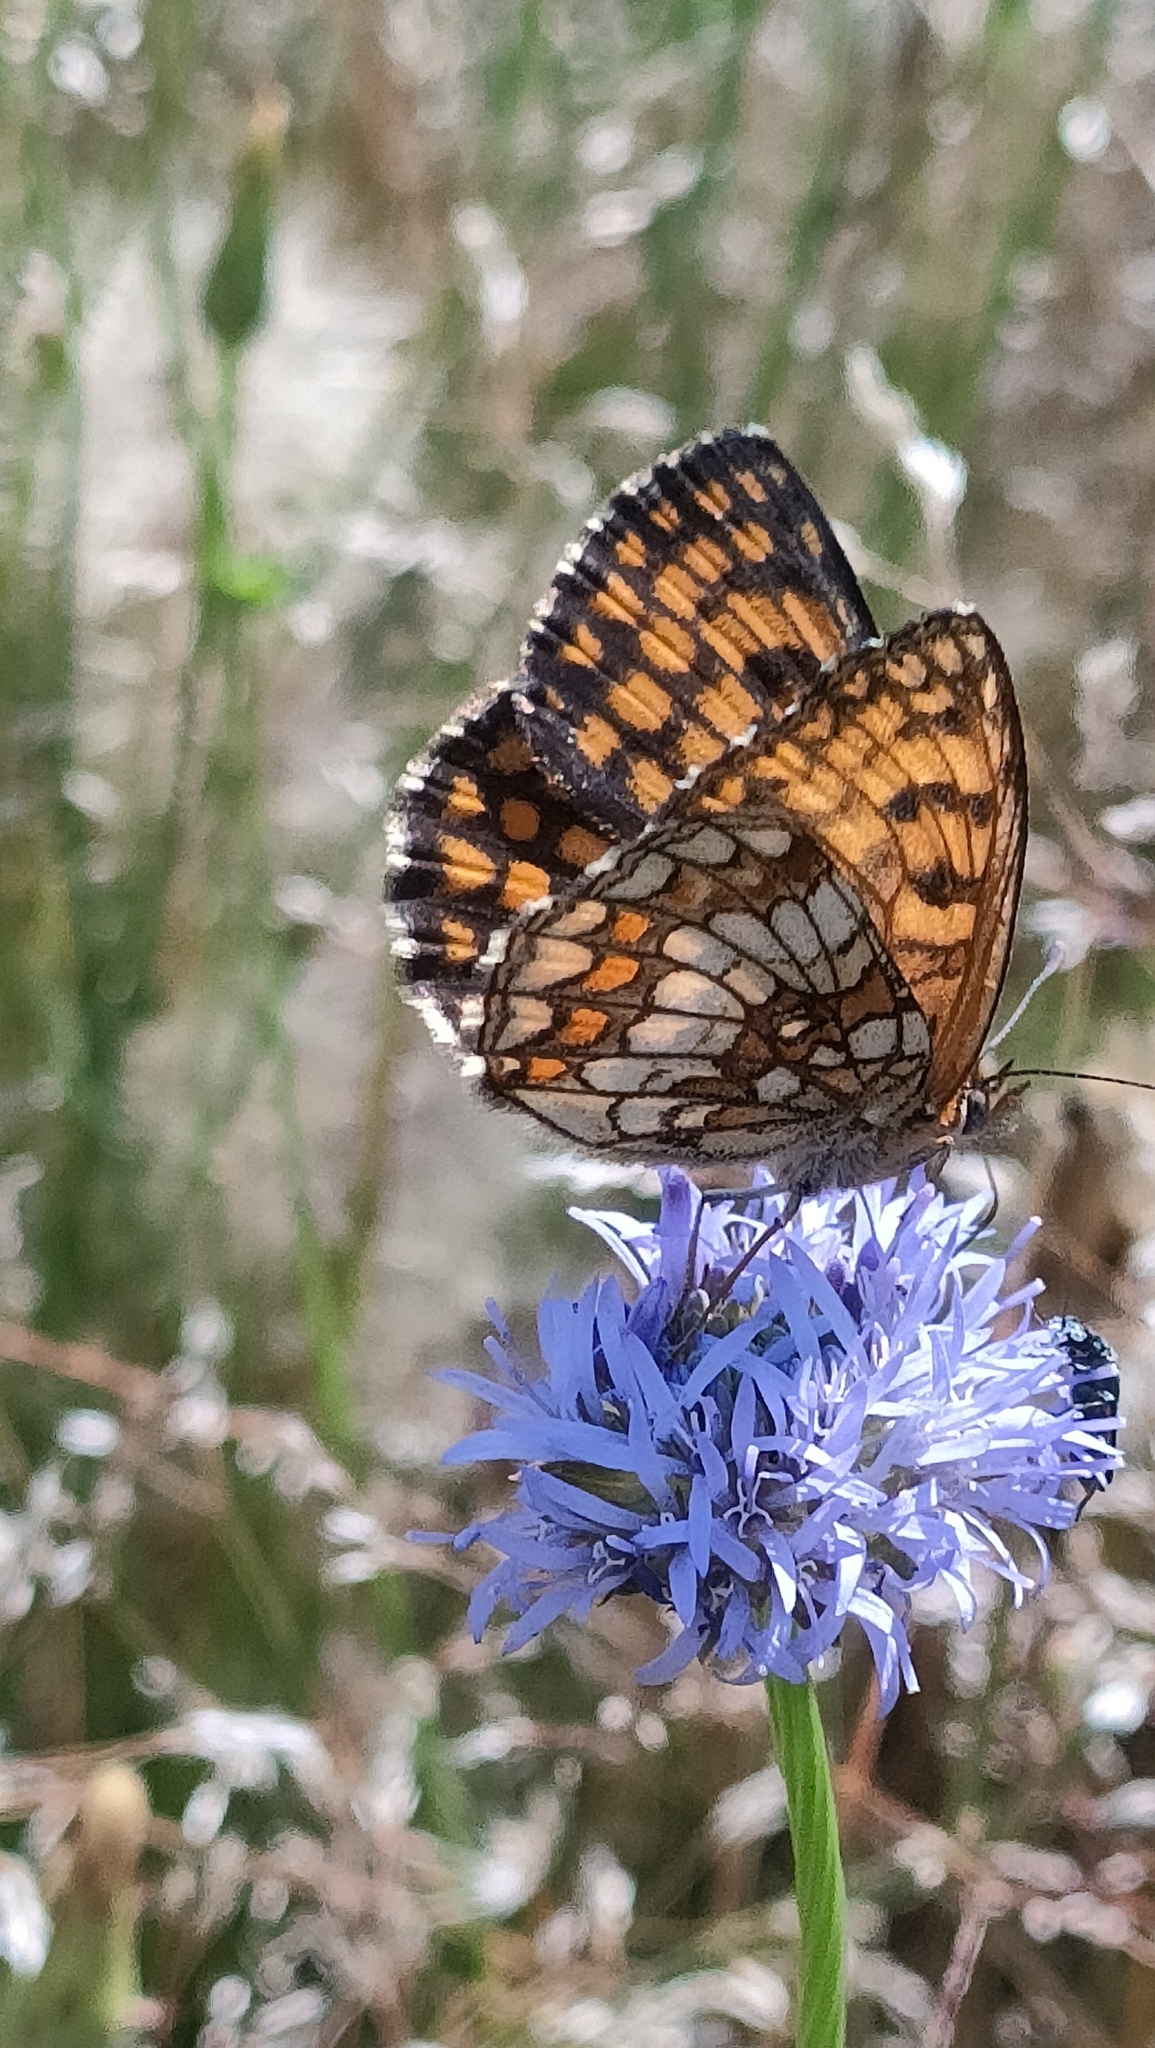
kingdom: Animalia
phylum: Arthropoda
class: Insecta
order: Lepidoptera
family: Nymphalidae
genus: Mellicta
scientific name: Mellicta athalia
